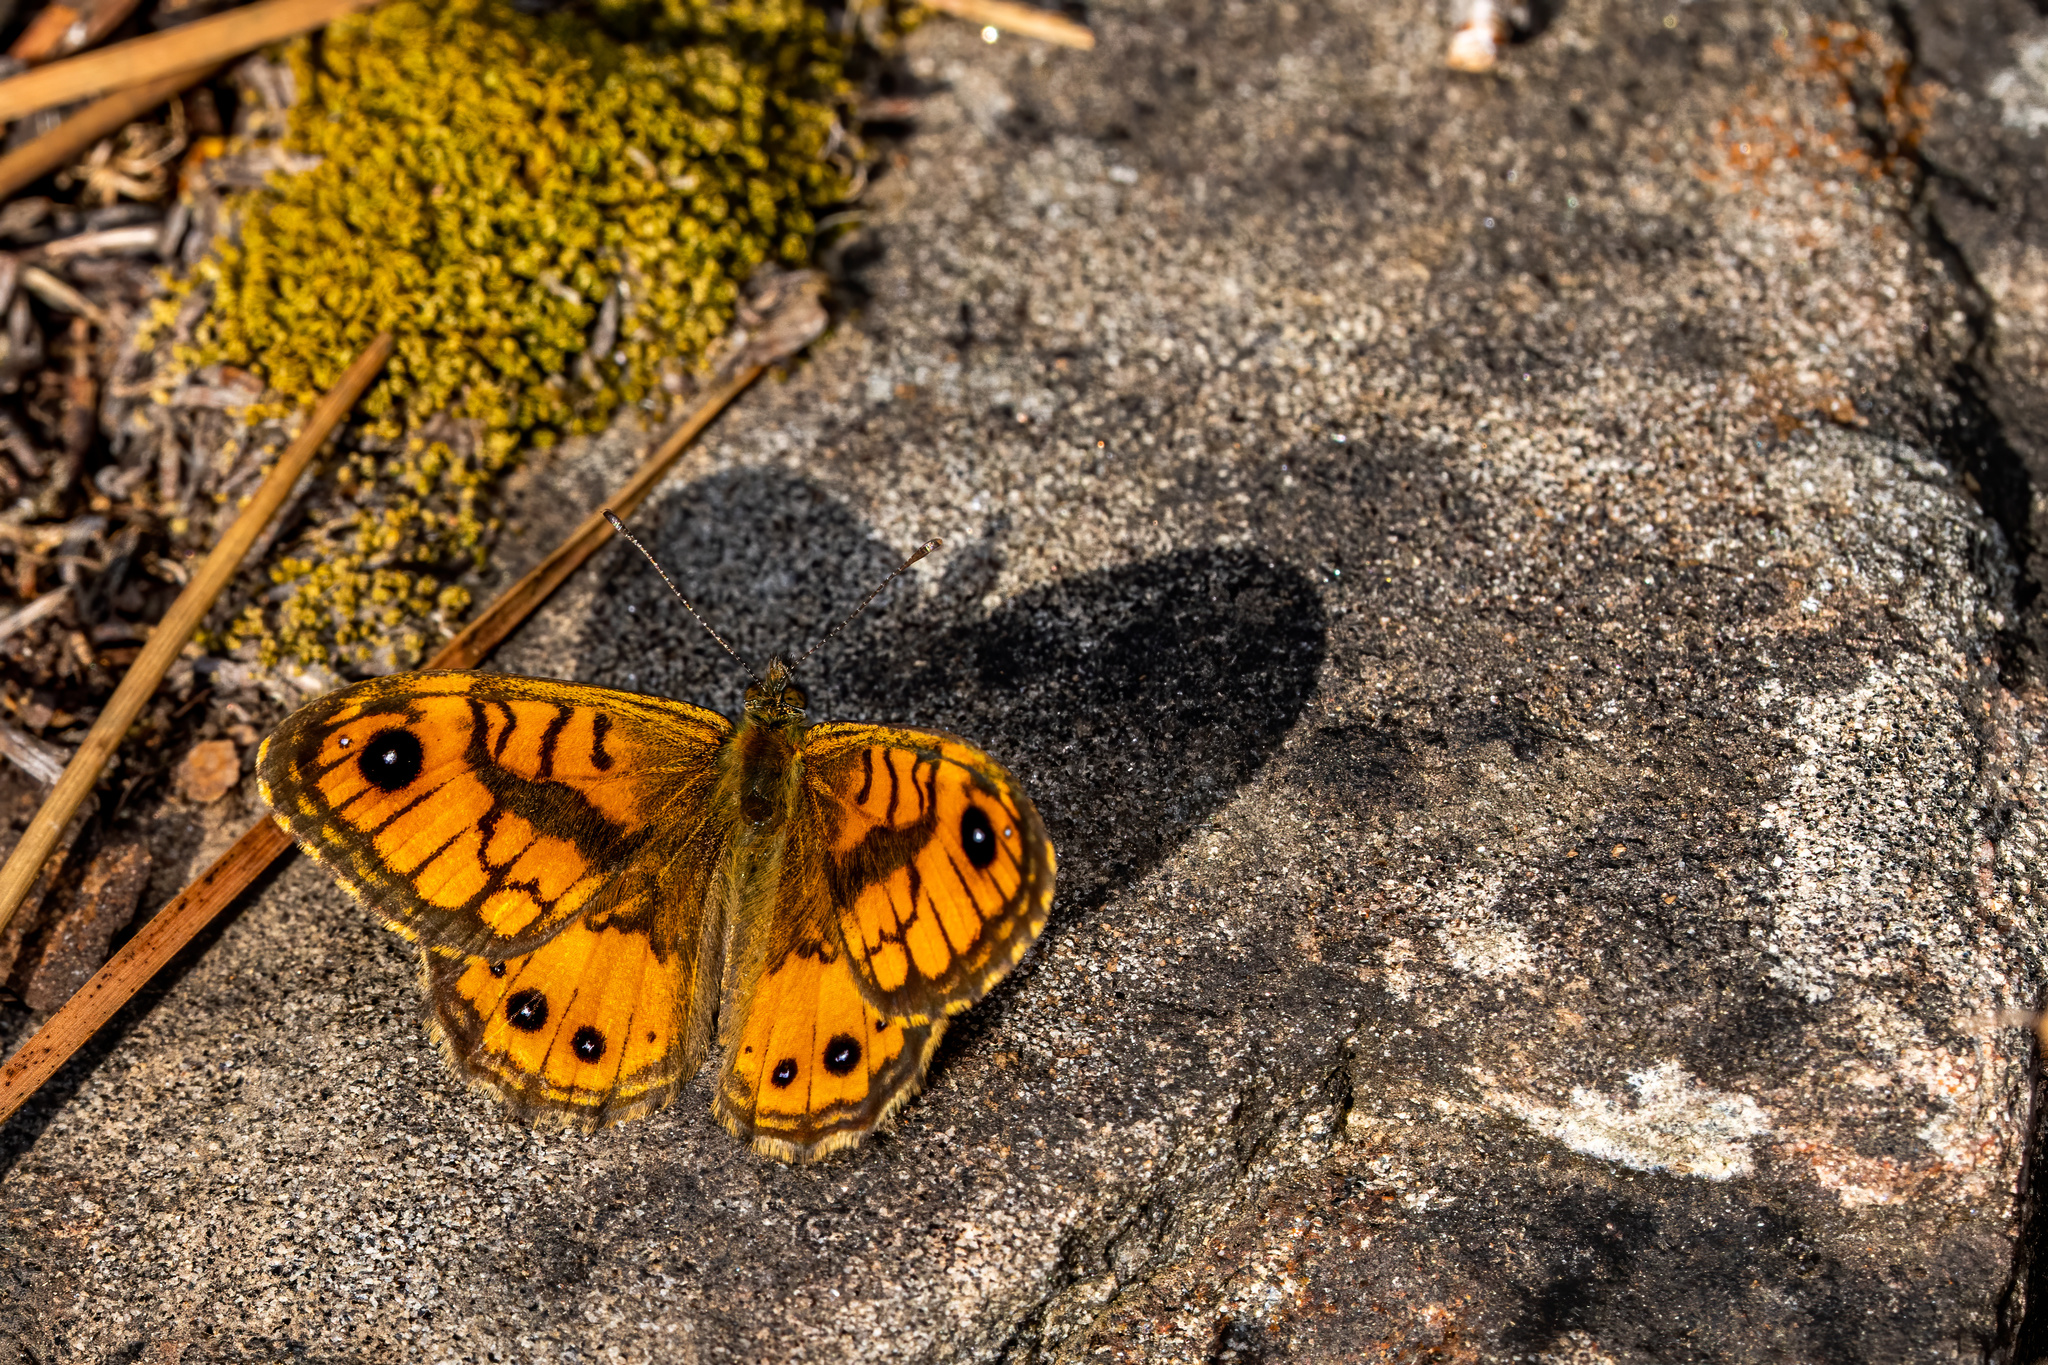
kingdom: Animalia
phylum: Arthropoda
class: Insecta
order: Lepidoptera
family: Nymphalidae
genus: Pararge
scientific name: Pararge Lasiommata paramegaera
